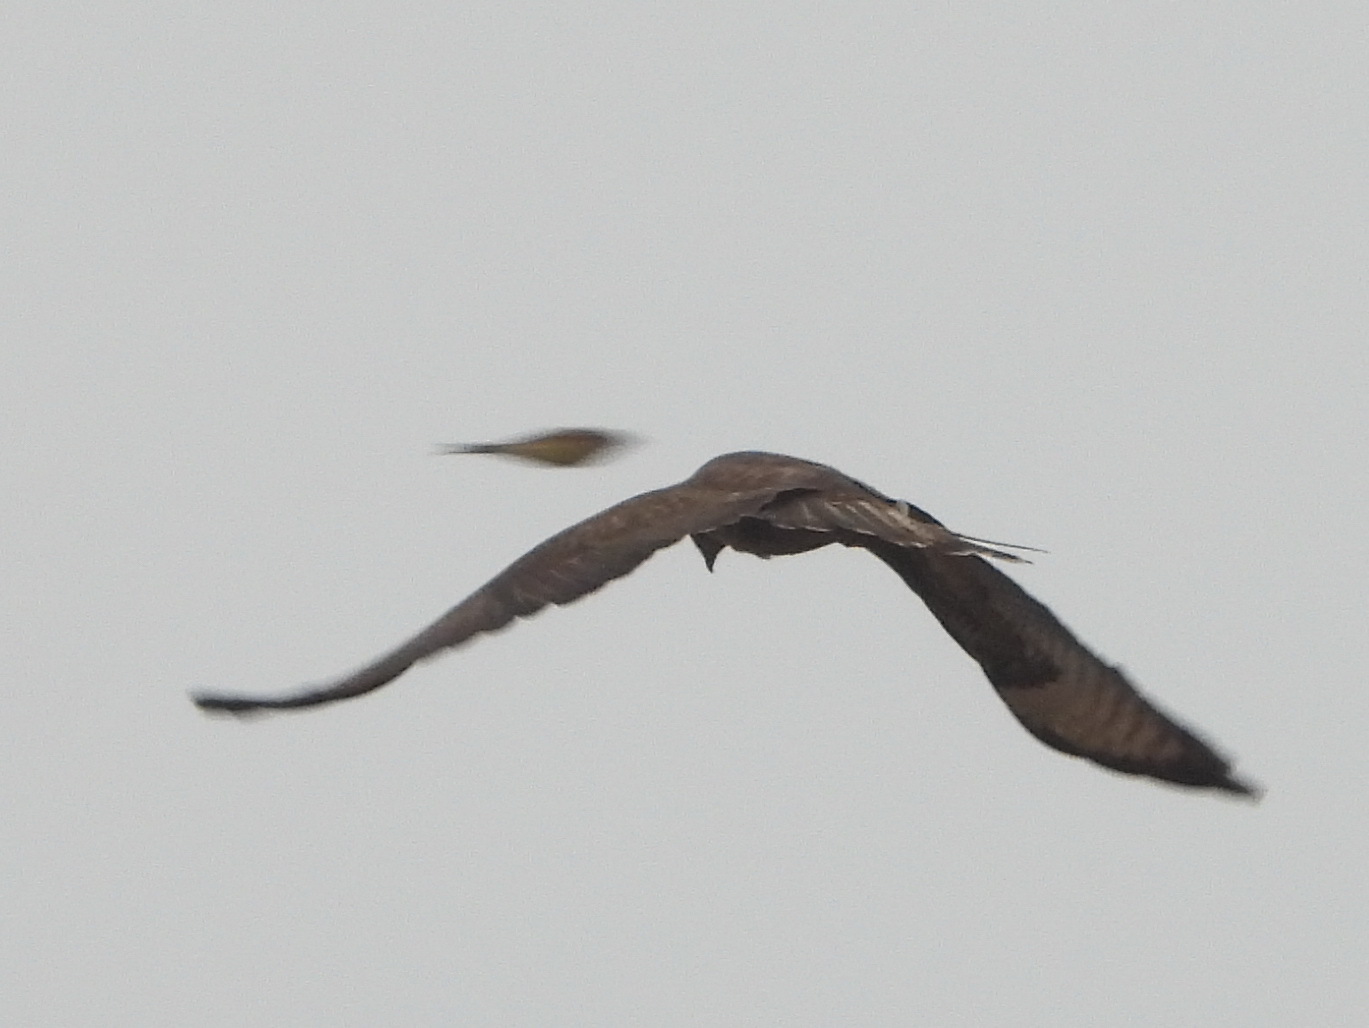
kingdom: Animalia
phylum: Chordata
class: Aves
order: Accipitriformes
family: Accipitridae
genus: Buteo
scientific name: Buteo buteo
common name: Common buzzard
